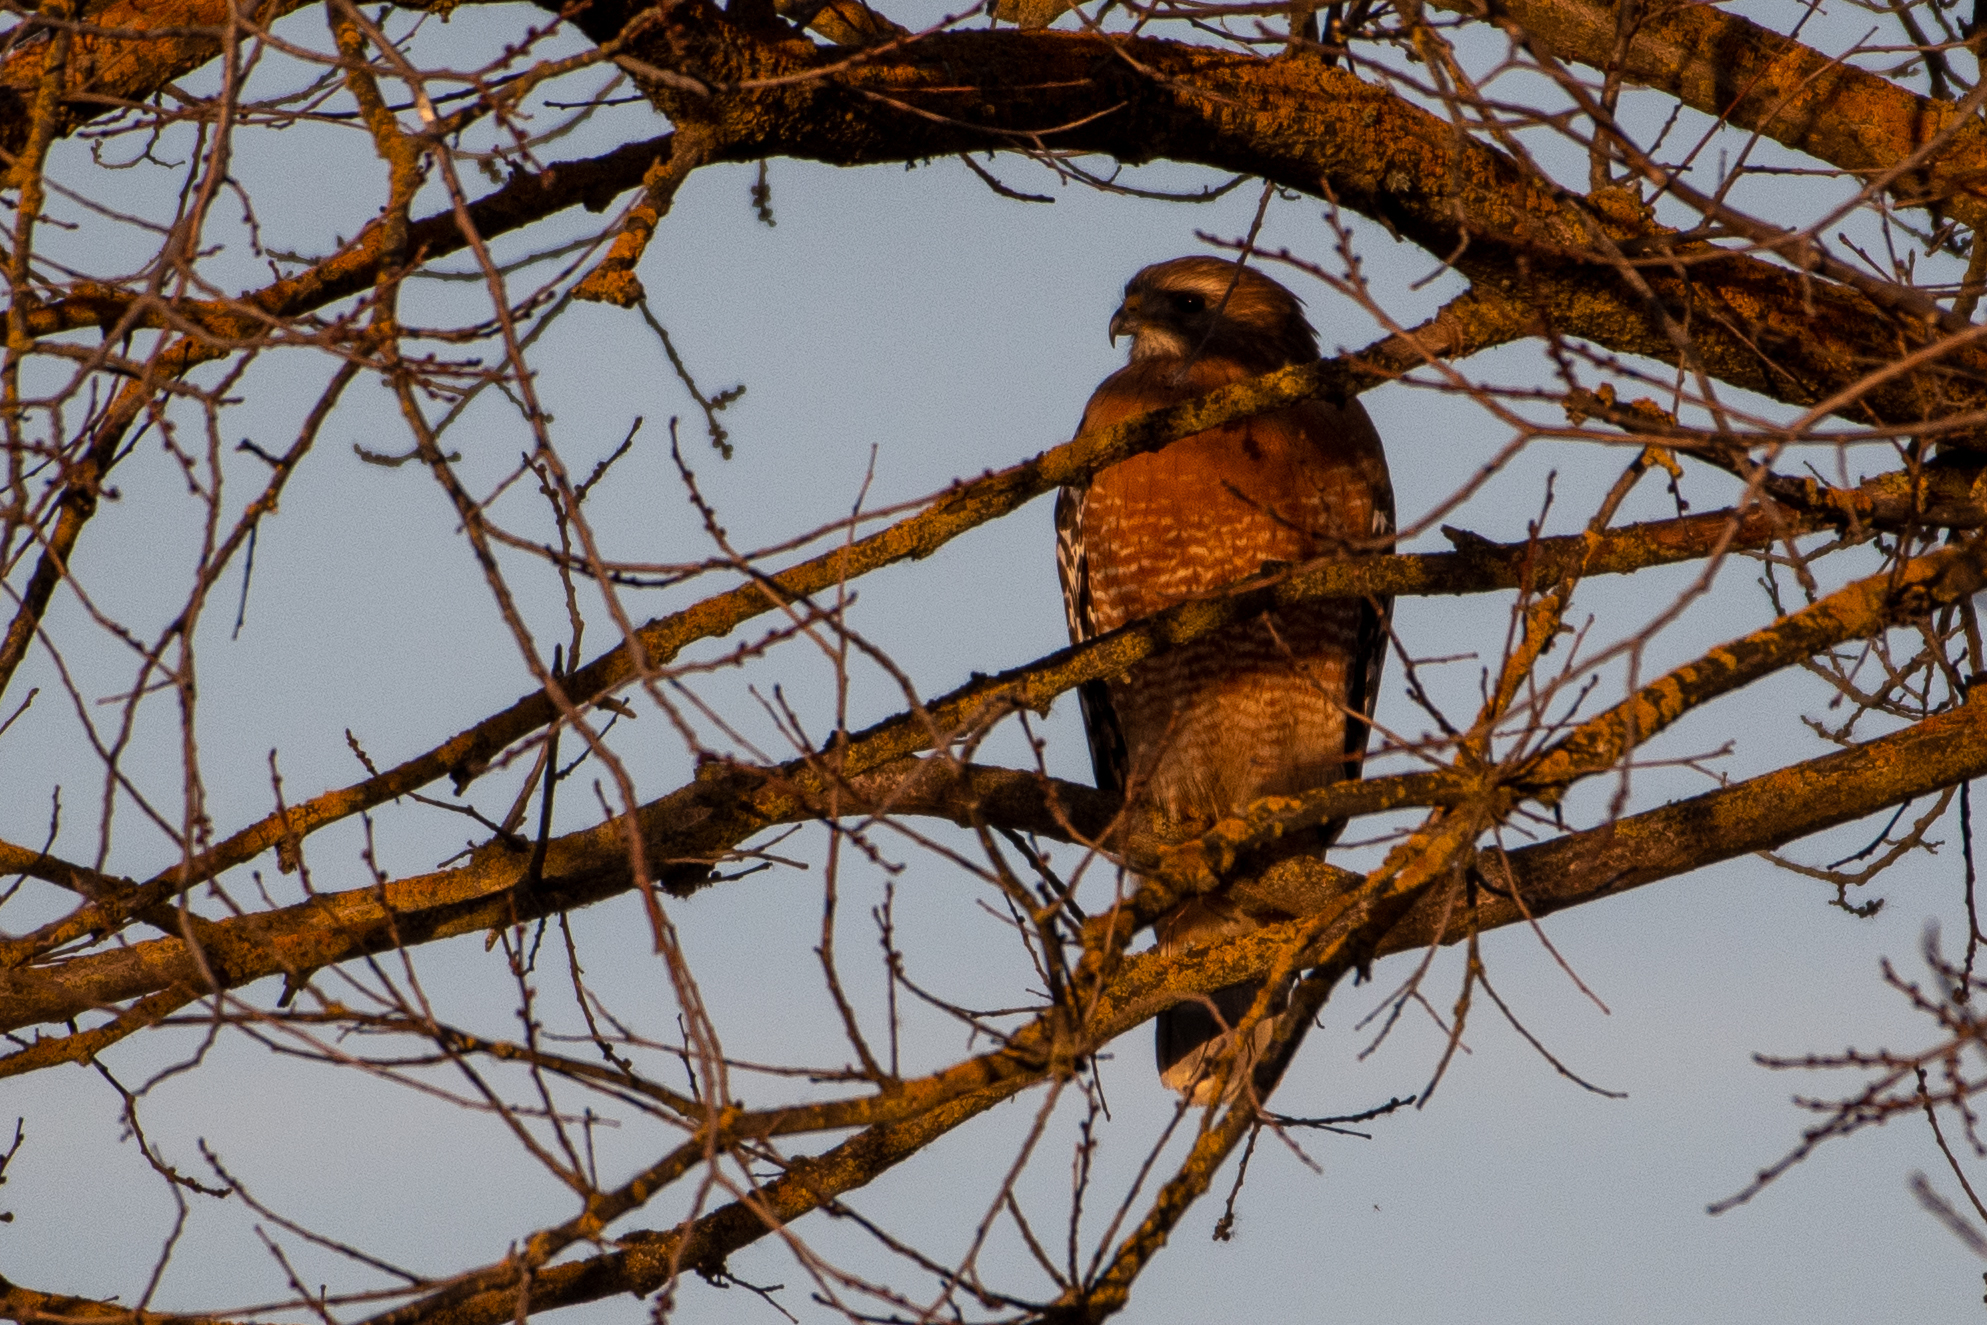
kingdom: Animalia
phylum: Chordata
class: Aves
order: Accipitriformes
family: Accipitridae
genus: Buteo
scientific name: Buteo lineatus
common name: Red-shouldered hawk
